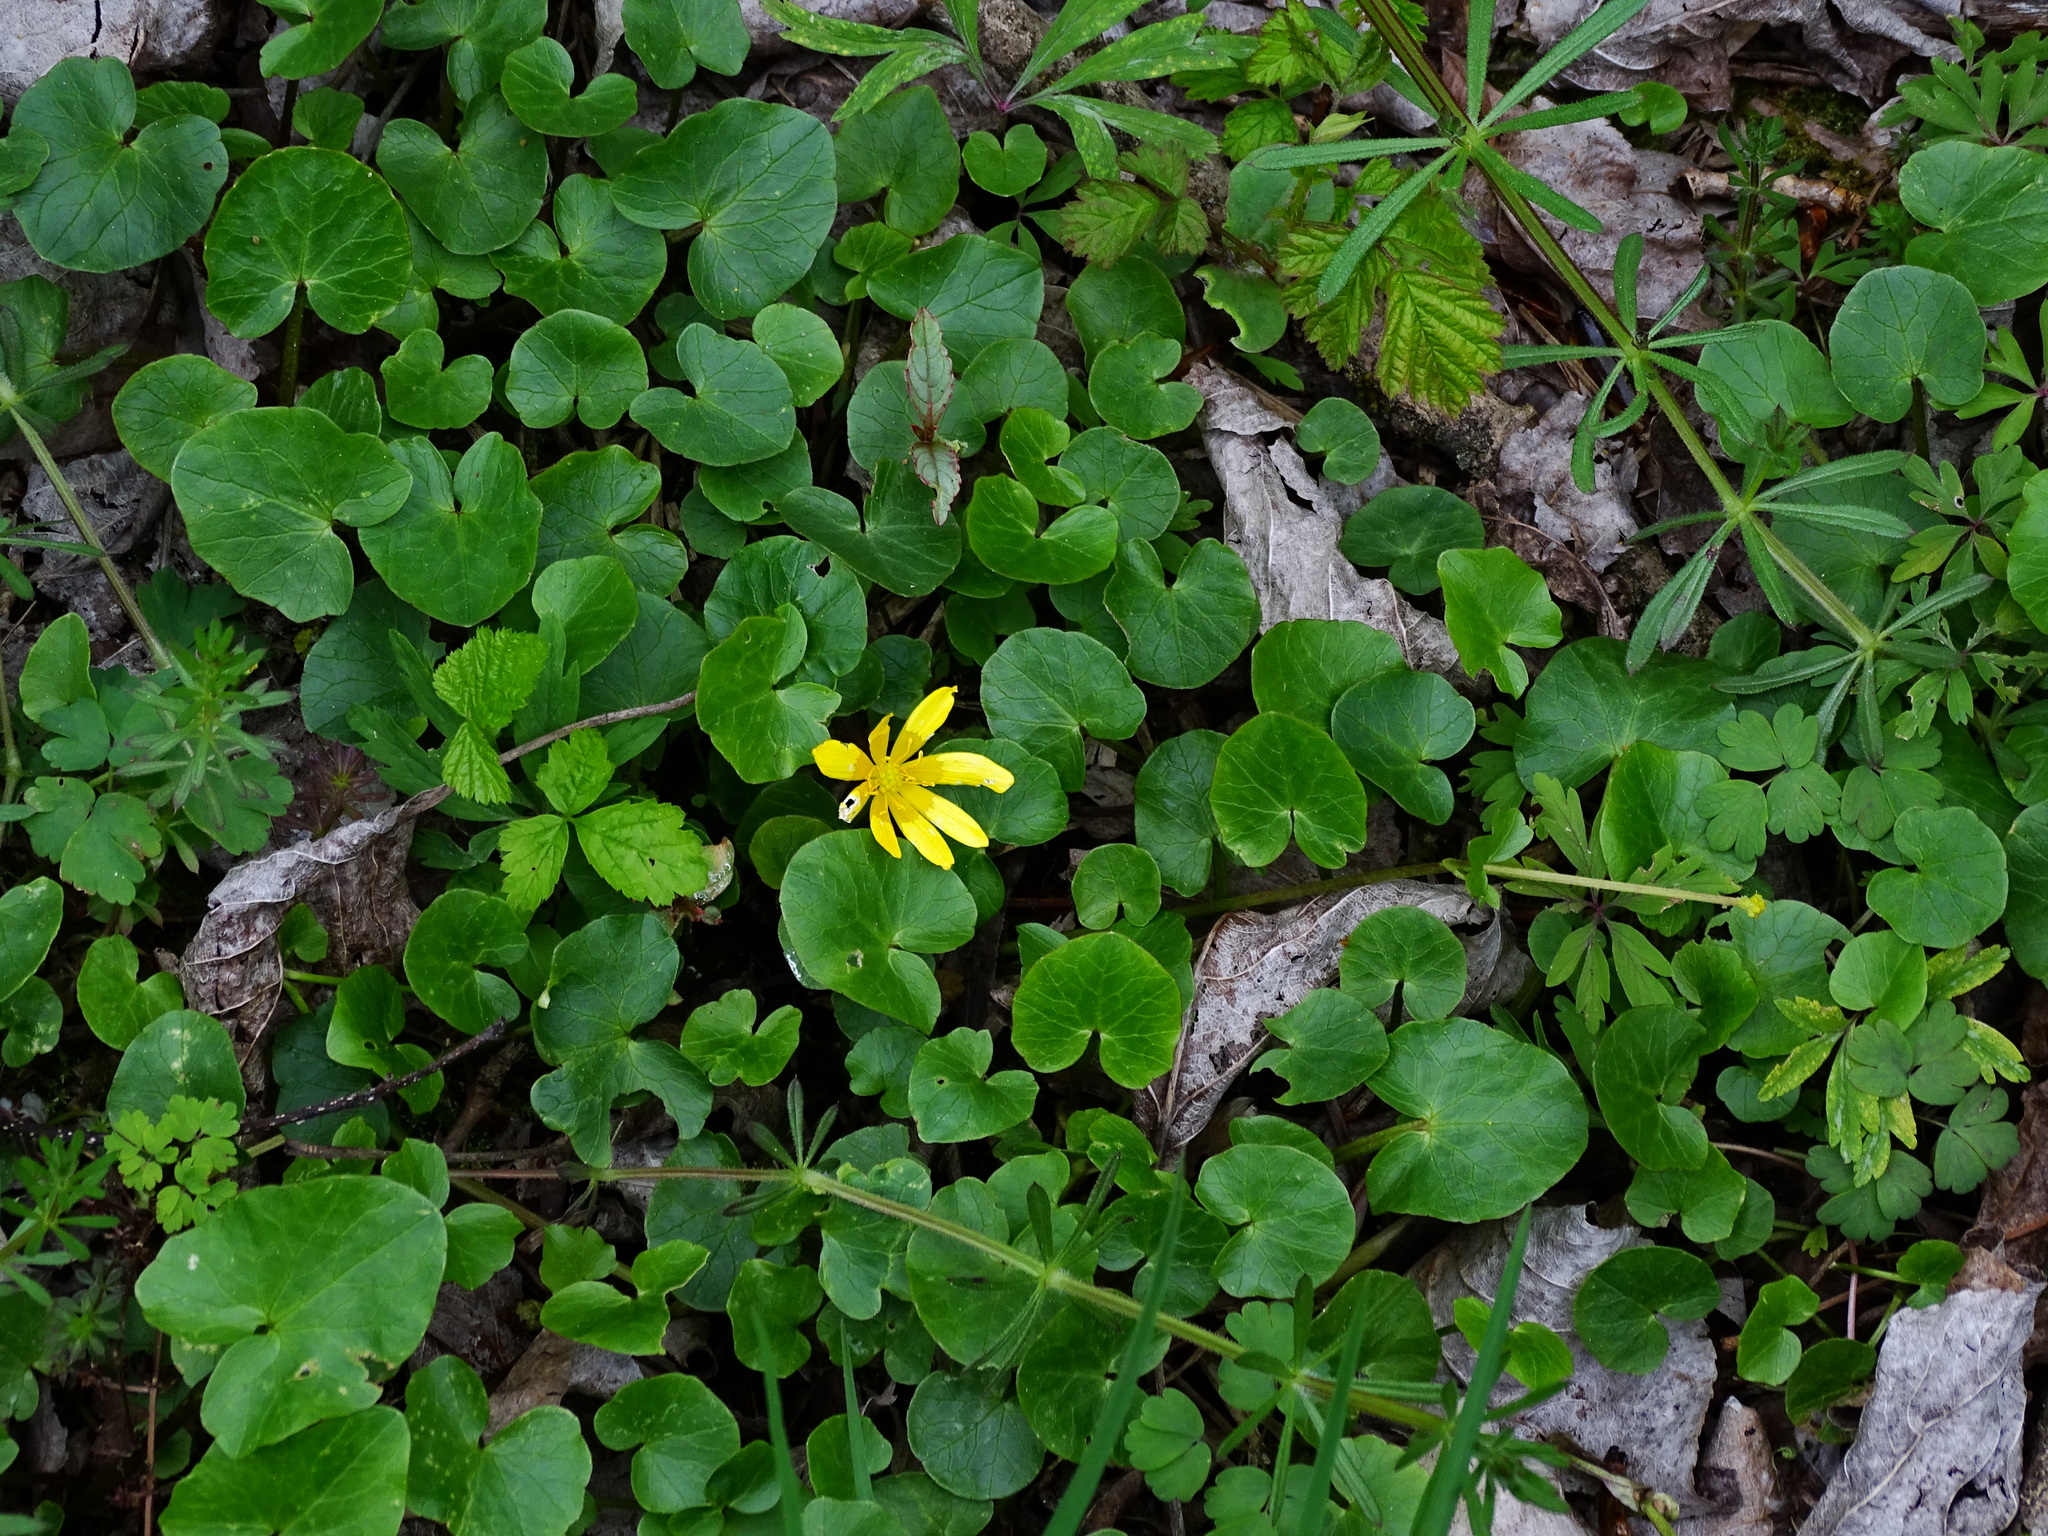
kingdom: Plantae
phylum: Tracheophyta
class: Magnoliopsida
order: Ranunculales
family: Ranunculaceae
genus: Ficaria
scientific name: Ficaria verna
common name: Lesser celandine
